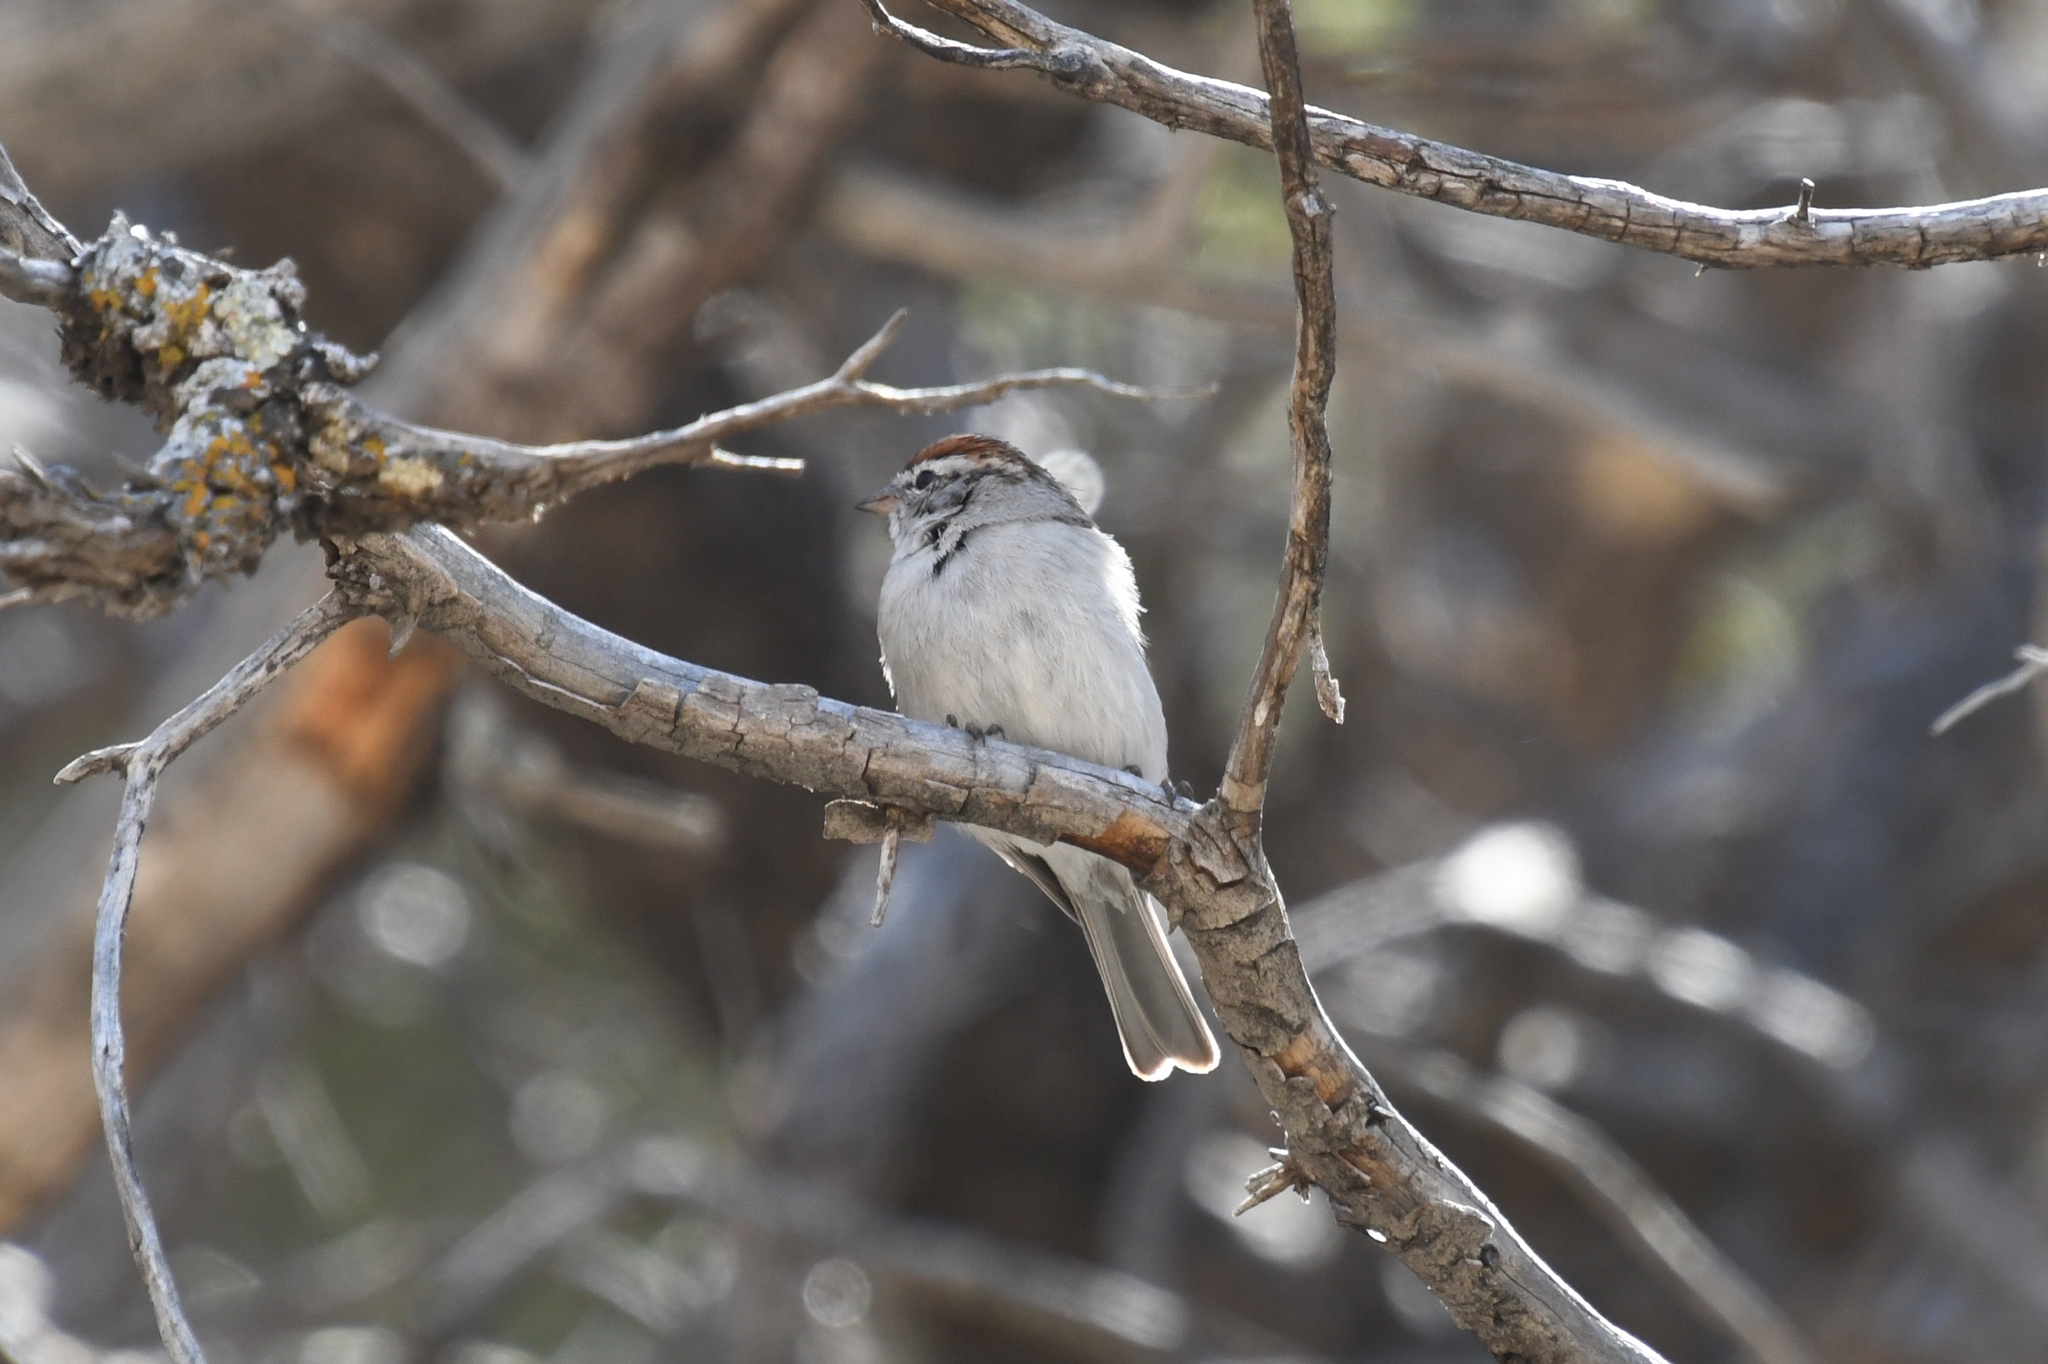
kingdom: Animalia
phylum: Chordata
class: Aves
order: Passeriformes
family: Passerellidae
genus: Spizella
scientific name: Spizella passerina
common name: Chipping sparrow
